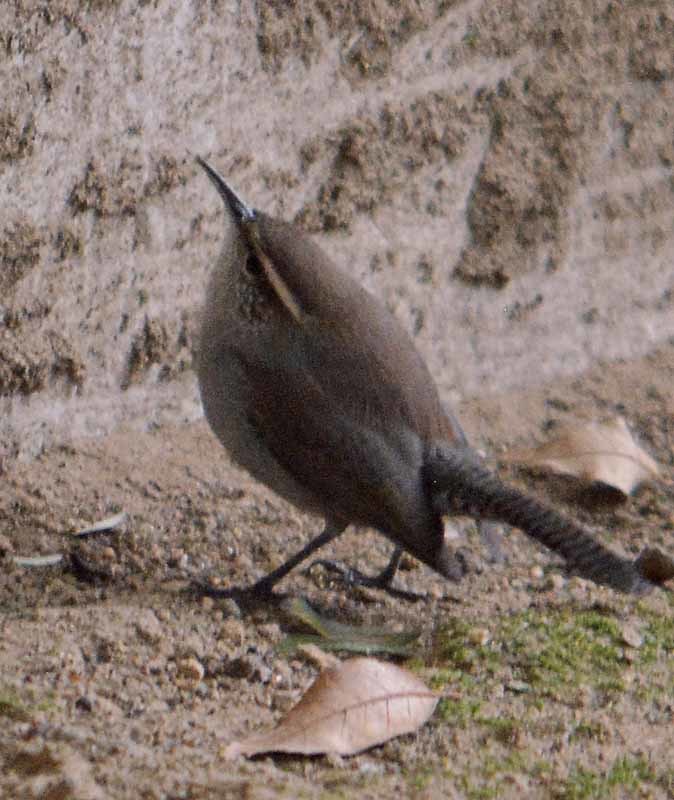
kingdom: Animalia
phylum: Chordata
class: Aves
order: Passeriformes
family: Troglodytidae
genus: Thryomanes
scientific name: Thryomanes bewickii
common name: Bewick's wren
